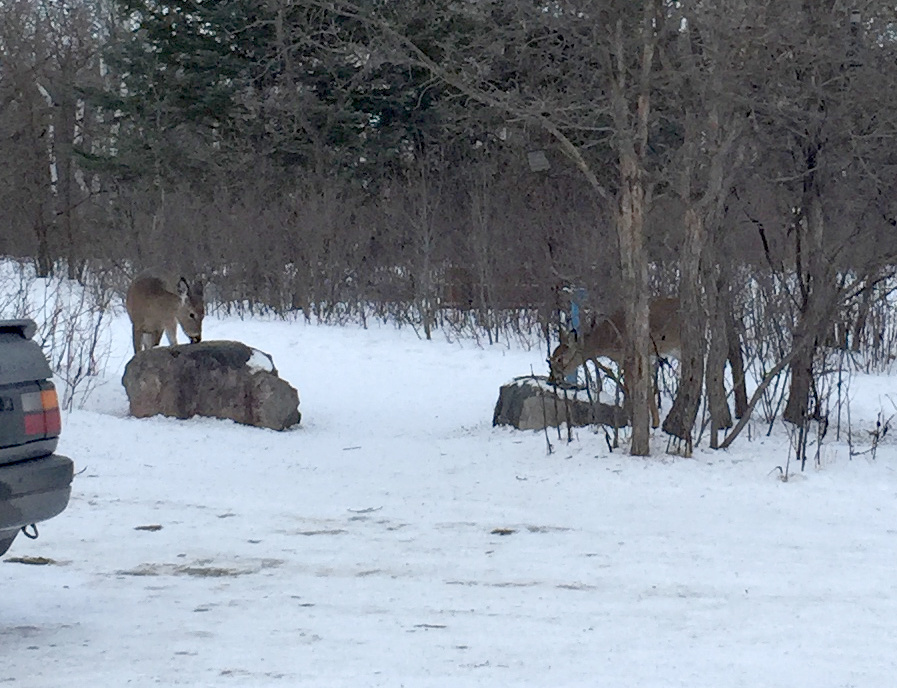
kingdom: Animalia
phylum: Chordata
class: Mammalia
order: Artiodactyla
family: Cervidae
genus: Odocoileus
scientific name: Odocoileus virginianus
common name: White-tailed deer
